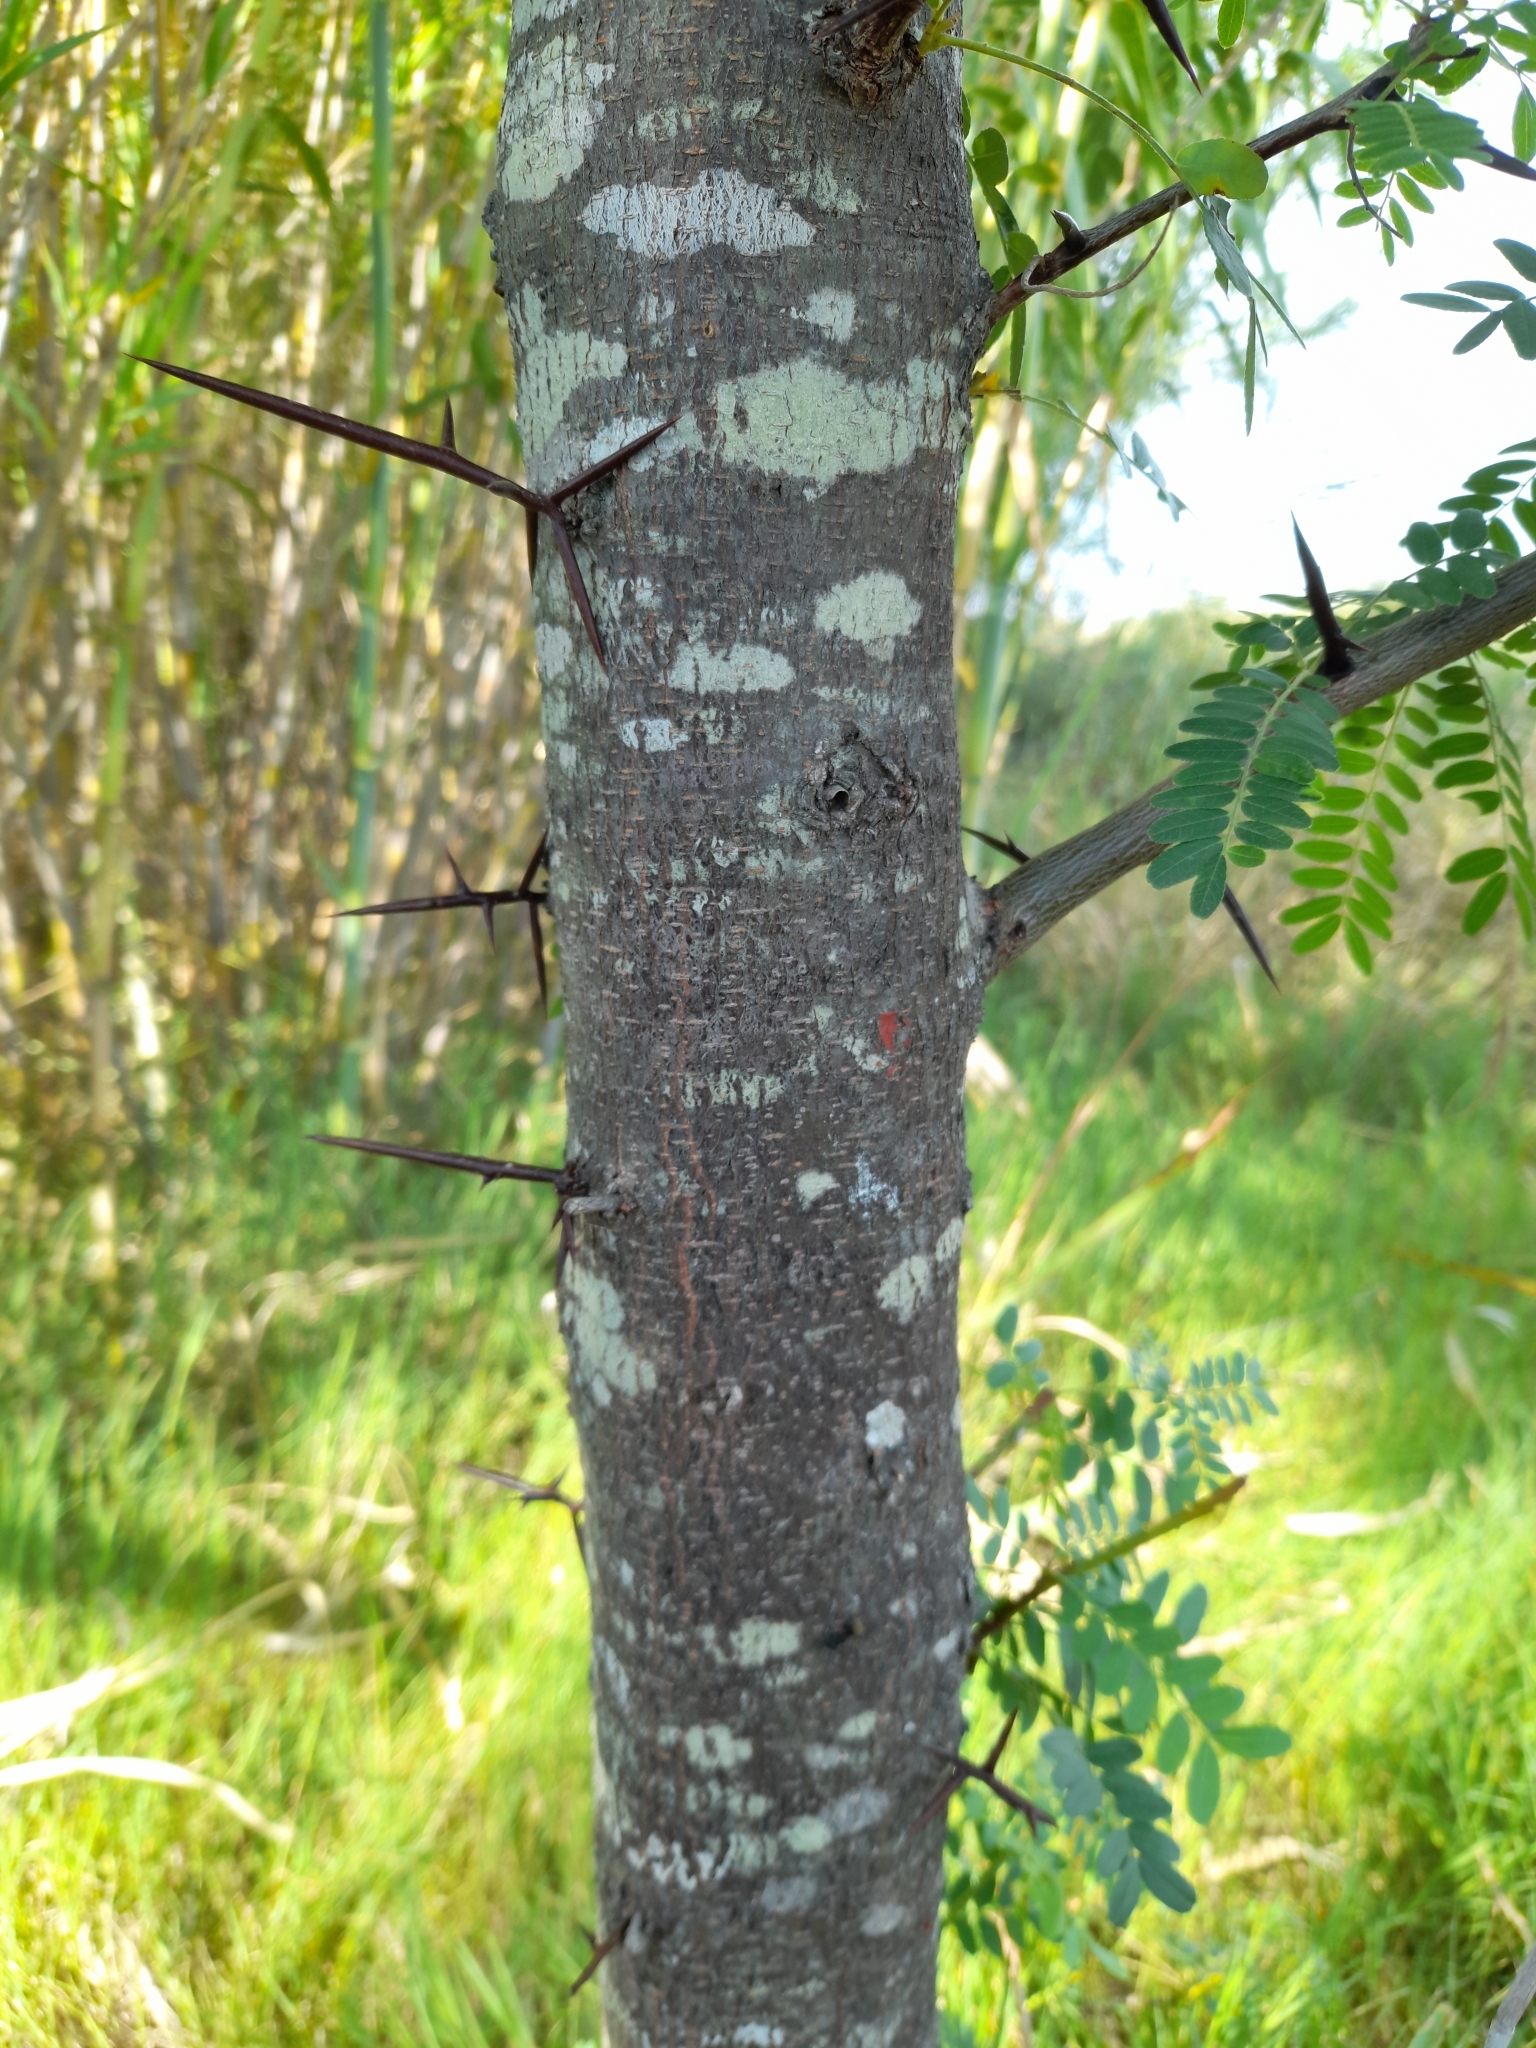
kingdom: Plantae
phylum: Tracheophyta
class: Magnoliopsida
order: Fabales
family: Fabaceae
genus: Gleditsia
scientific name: Gleditsia triacanthos
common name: Common honeylocust
